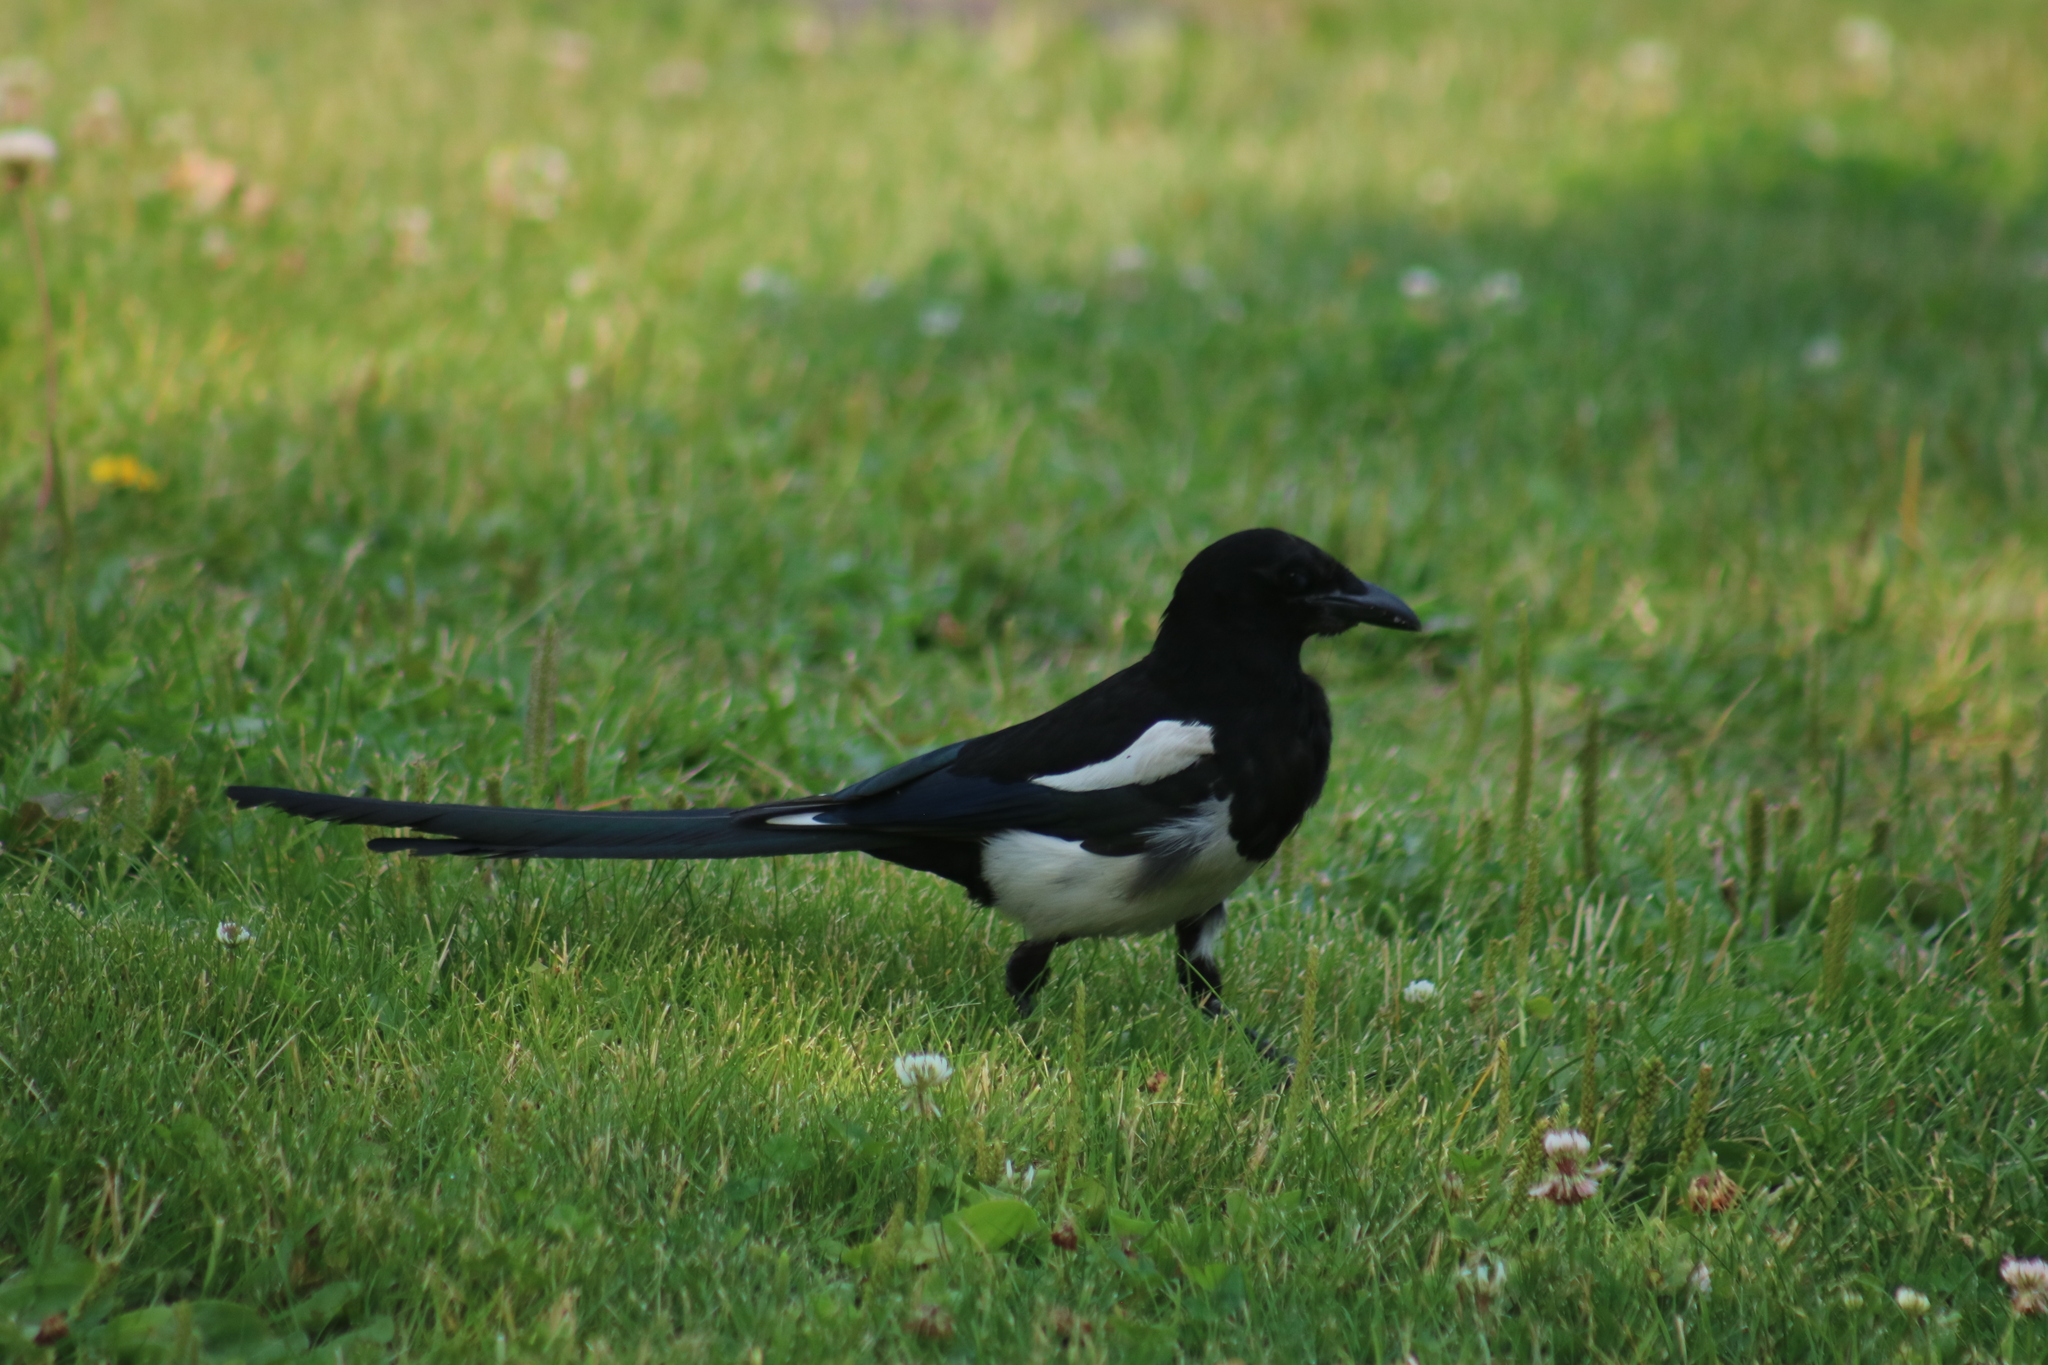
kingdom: Animalia
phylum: Chordata
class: Aves
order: Passeriformes
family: Corvidae
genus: Pica
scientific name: Pica hudsonia
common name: Black-billed magpie
